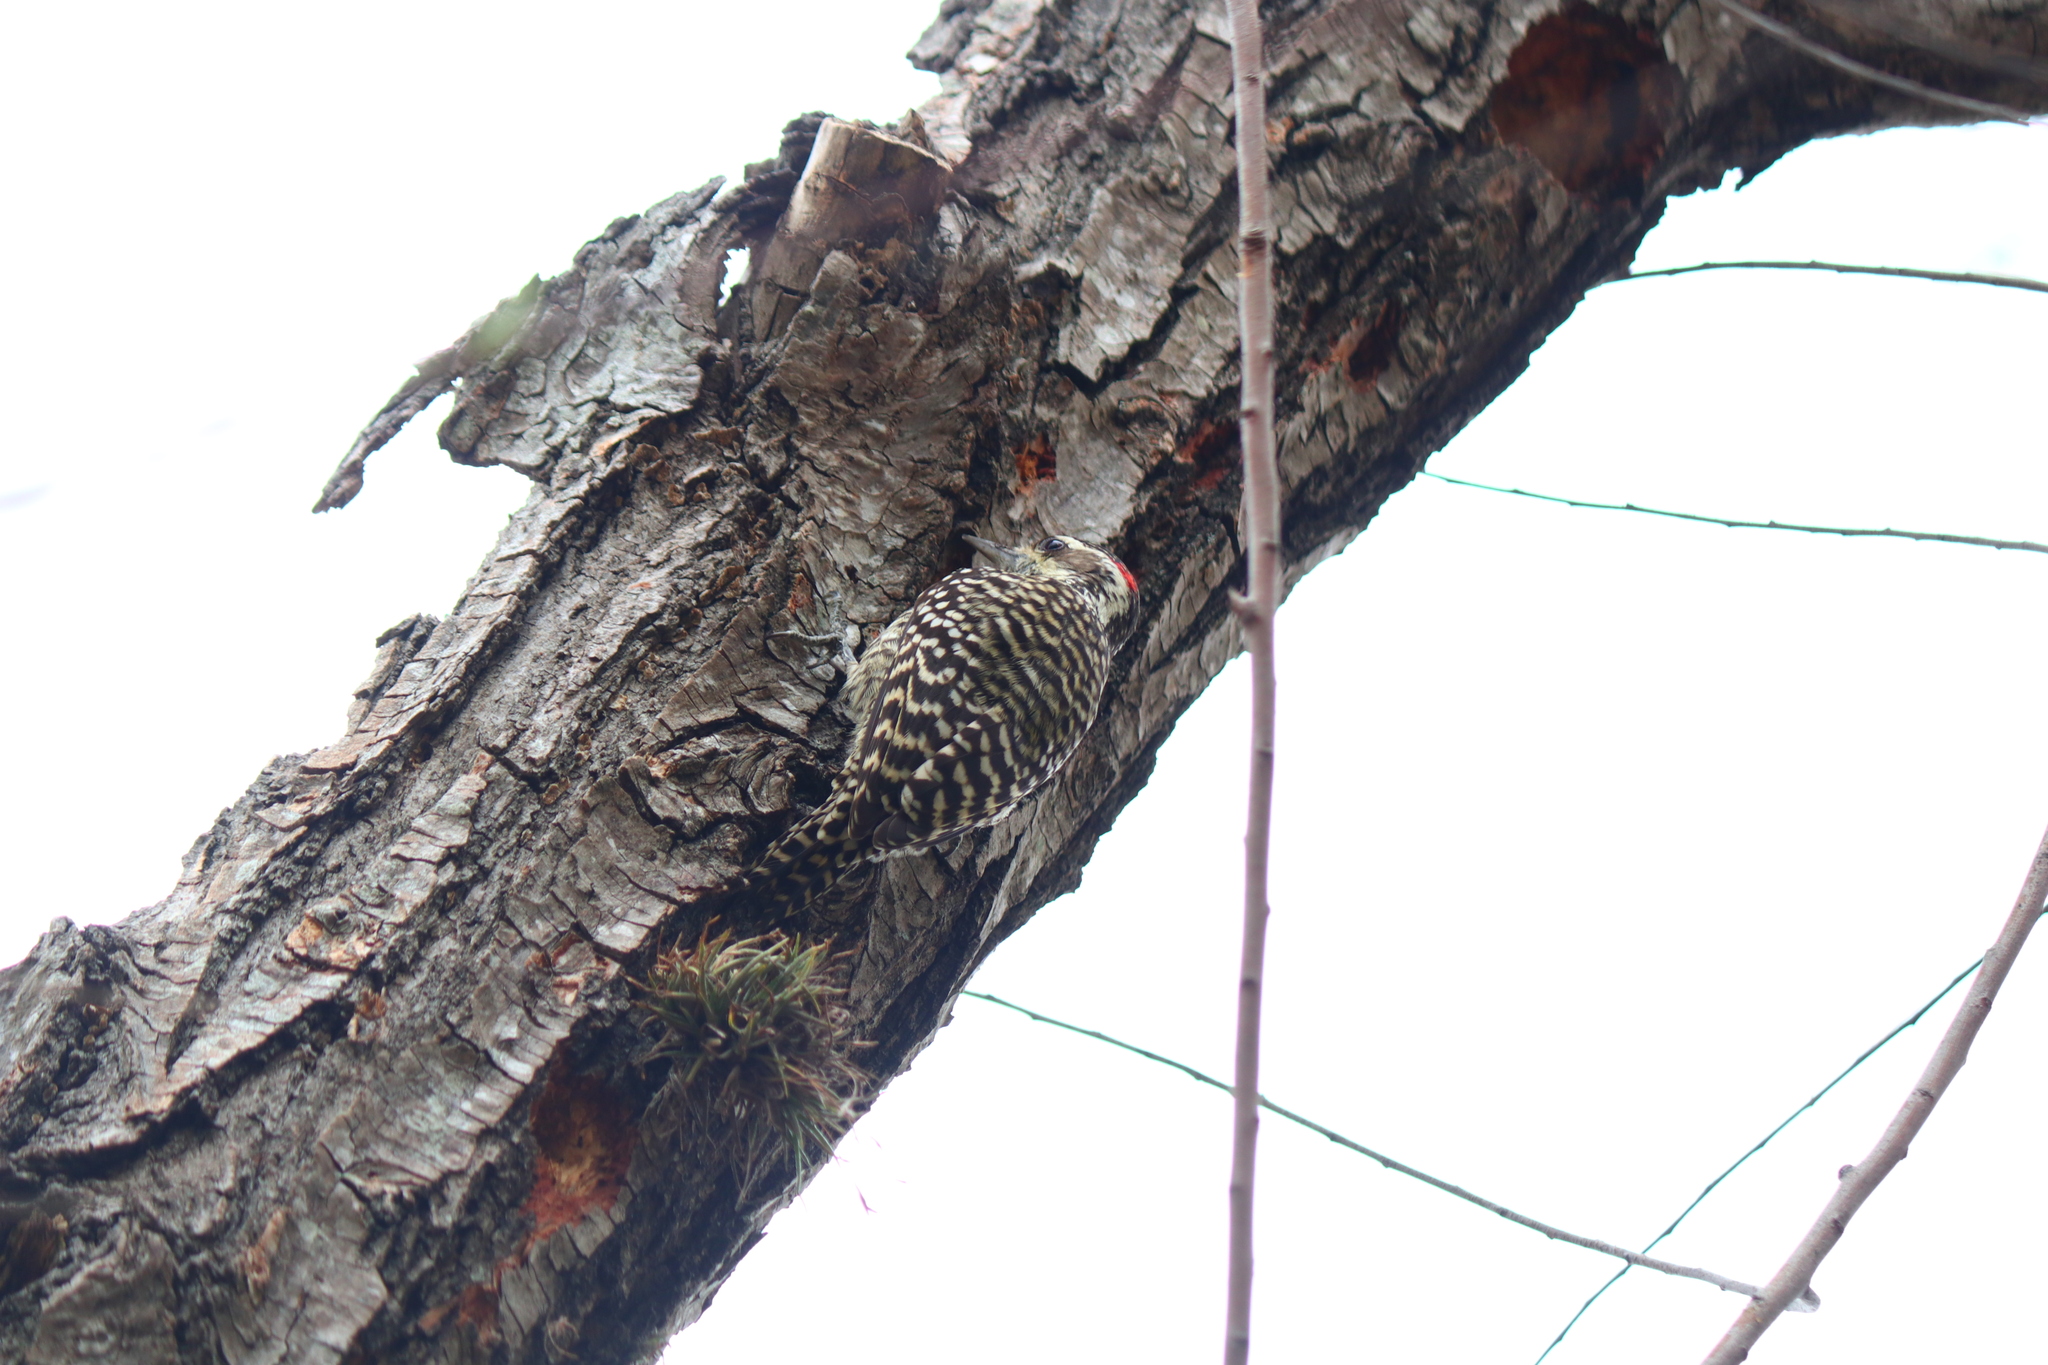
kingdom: Animalia
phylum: Chordata
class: Aves
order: Piciformes
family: Picidae
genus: Veniliornis
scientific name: Veniliornis mixtus
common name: Checkered woodpecker
